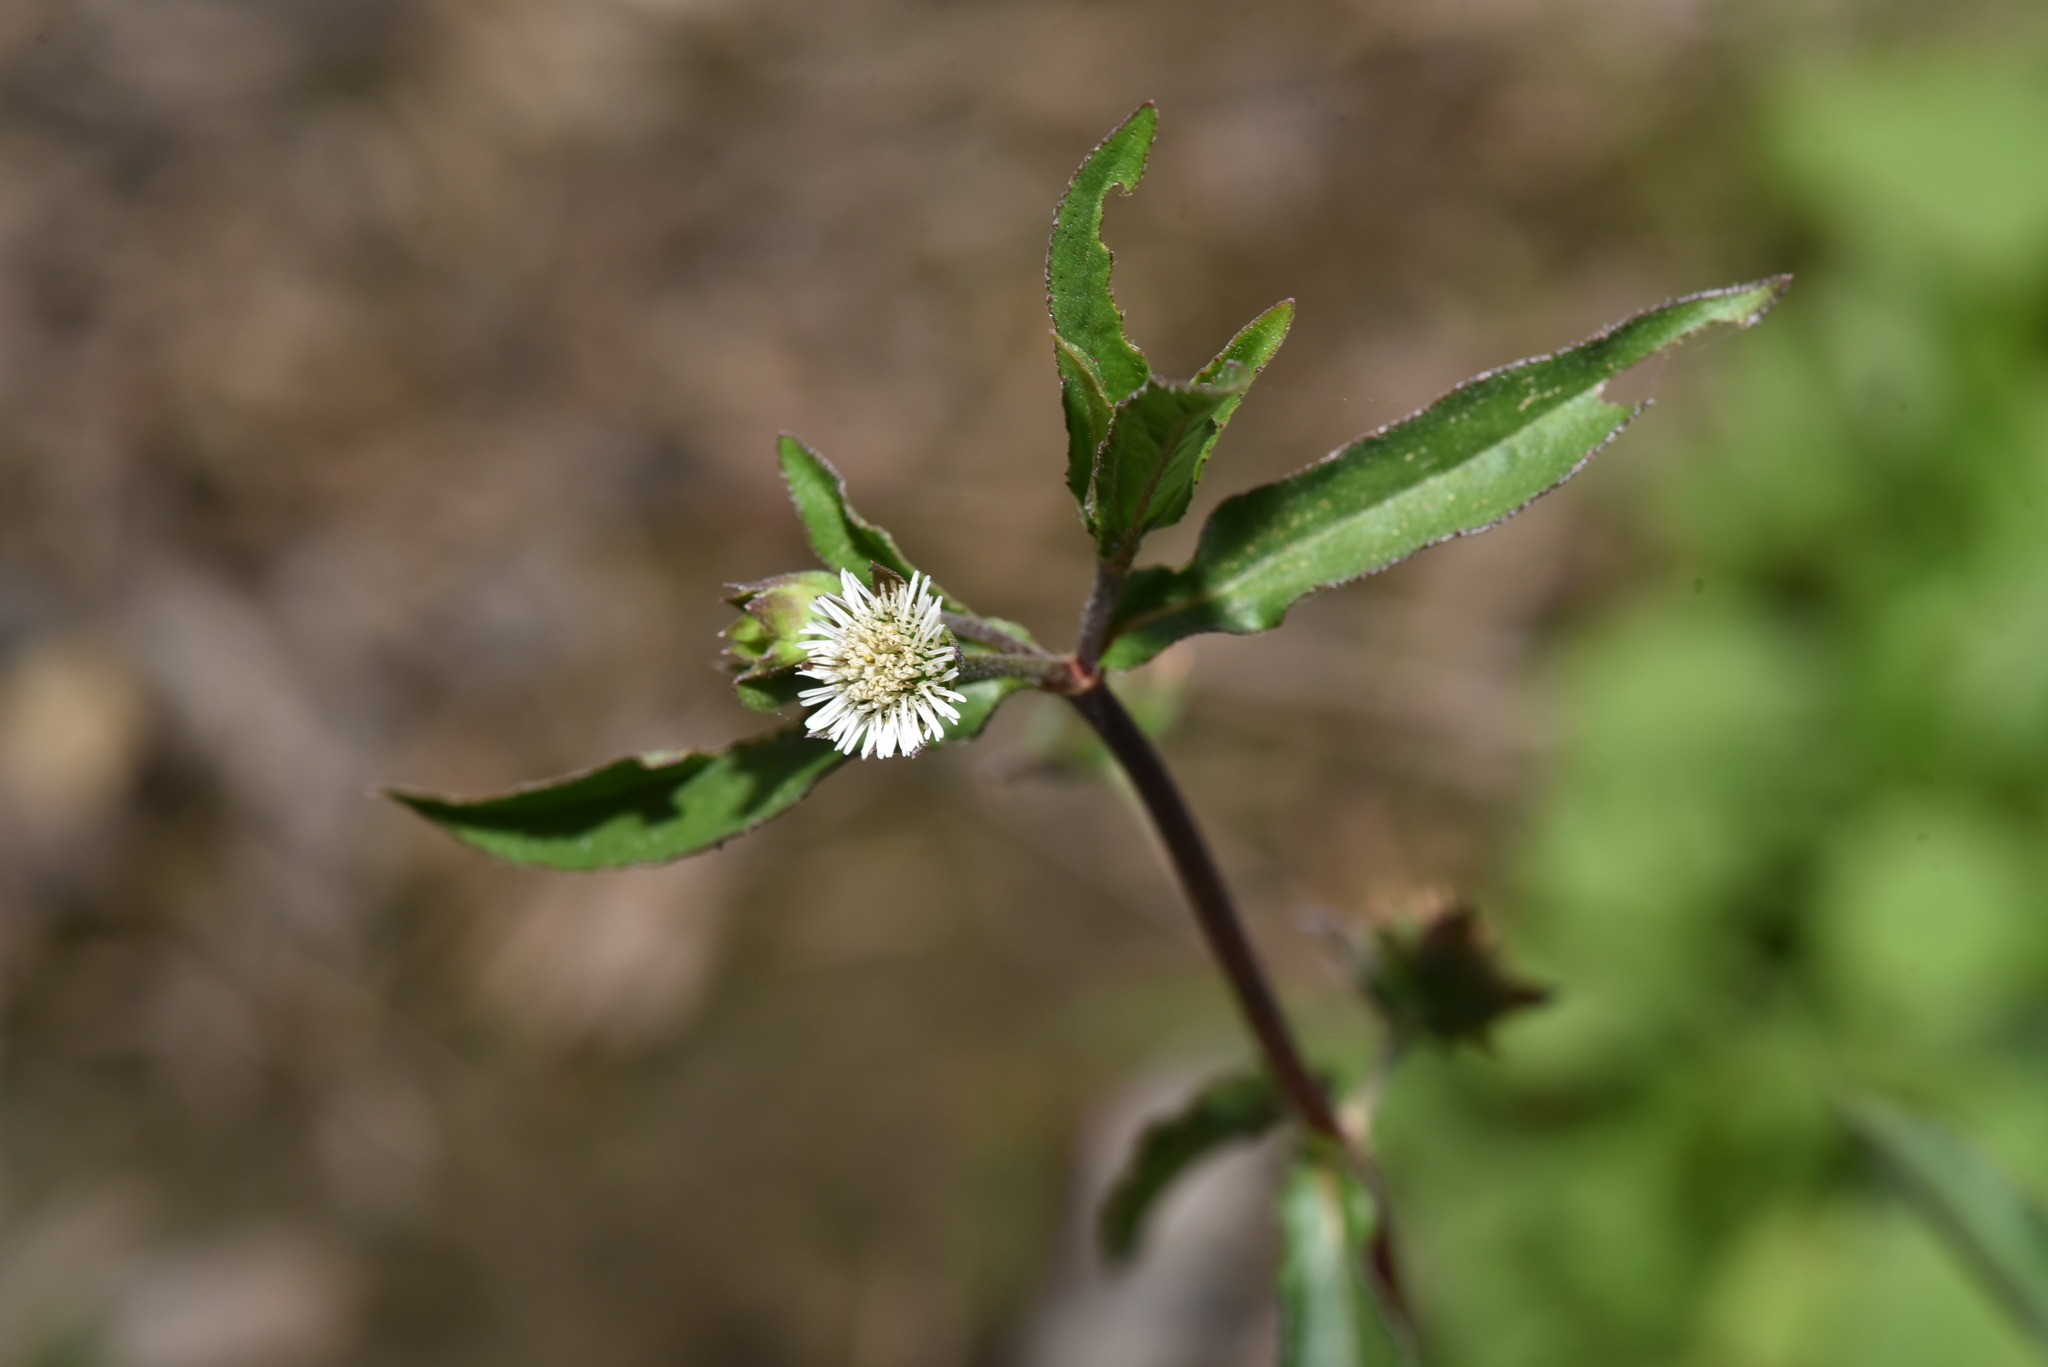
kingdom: Plantae
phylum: Tracheophyta
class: Magnoliopsida
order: Asterales
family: Asteraceae
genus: Eclipta
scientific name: Eclipta prostrata
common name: False daisy
